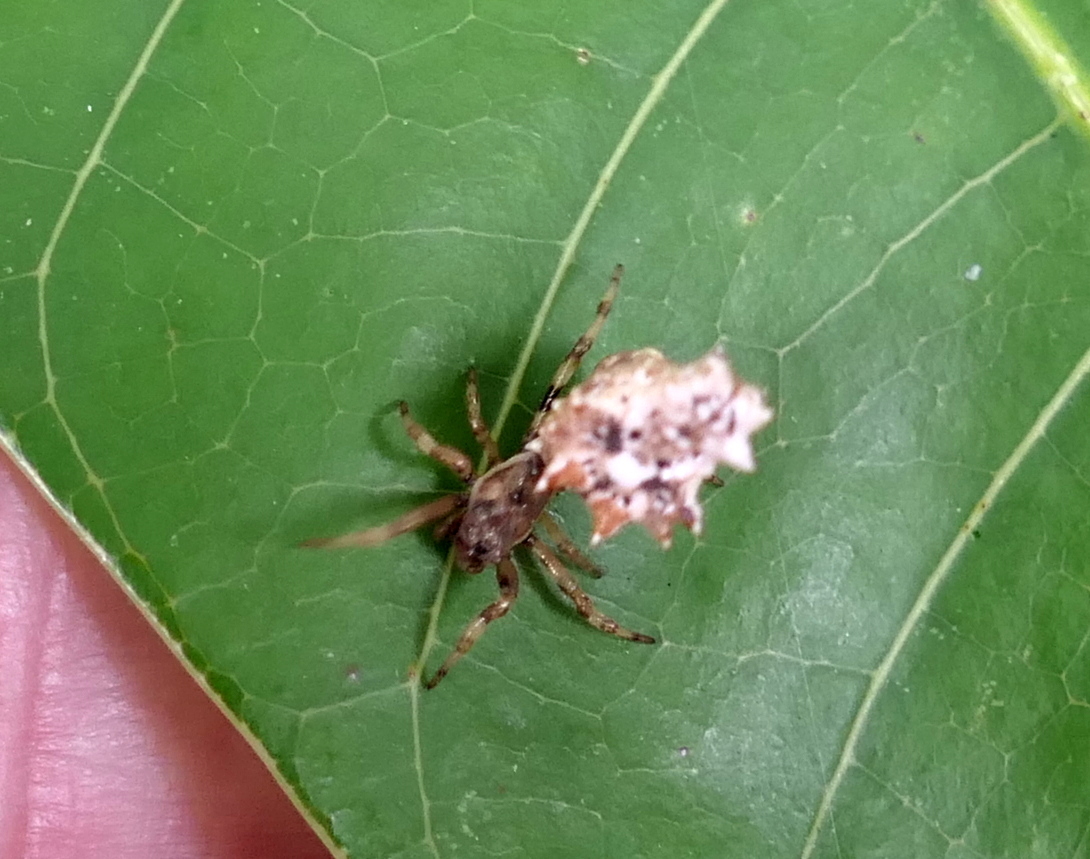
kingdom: Animalia
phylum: Arthropoda
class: Arachnida
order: Araneae
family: Araneidae
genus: Micrathena
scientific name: Micrathena horrida
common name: Orb weavers
